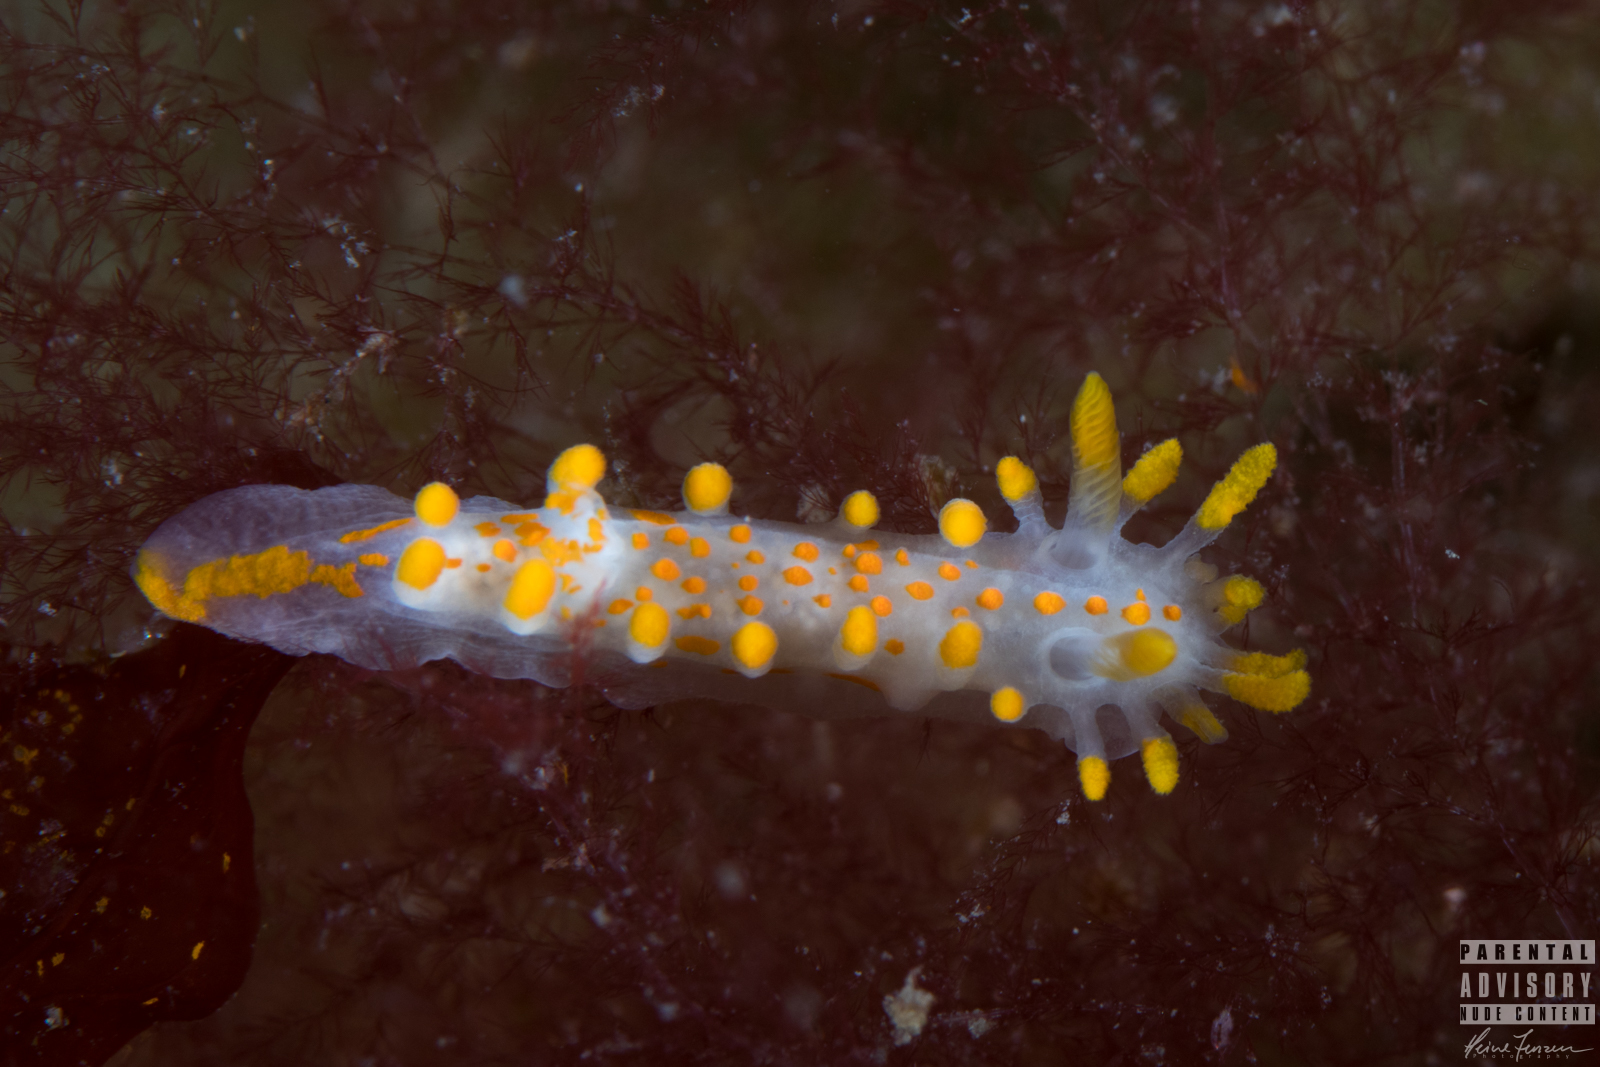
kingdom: Animalia
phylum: Mollusca
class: Gastropoda
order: Nudibranchia
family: Polyceridae
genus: Limacia
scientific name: Limacia clavigera
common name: Orange-clubbed sea slug
